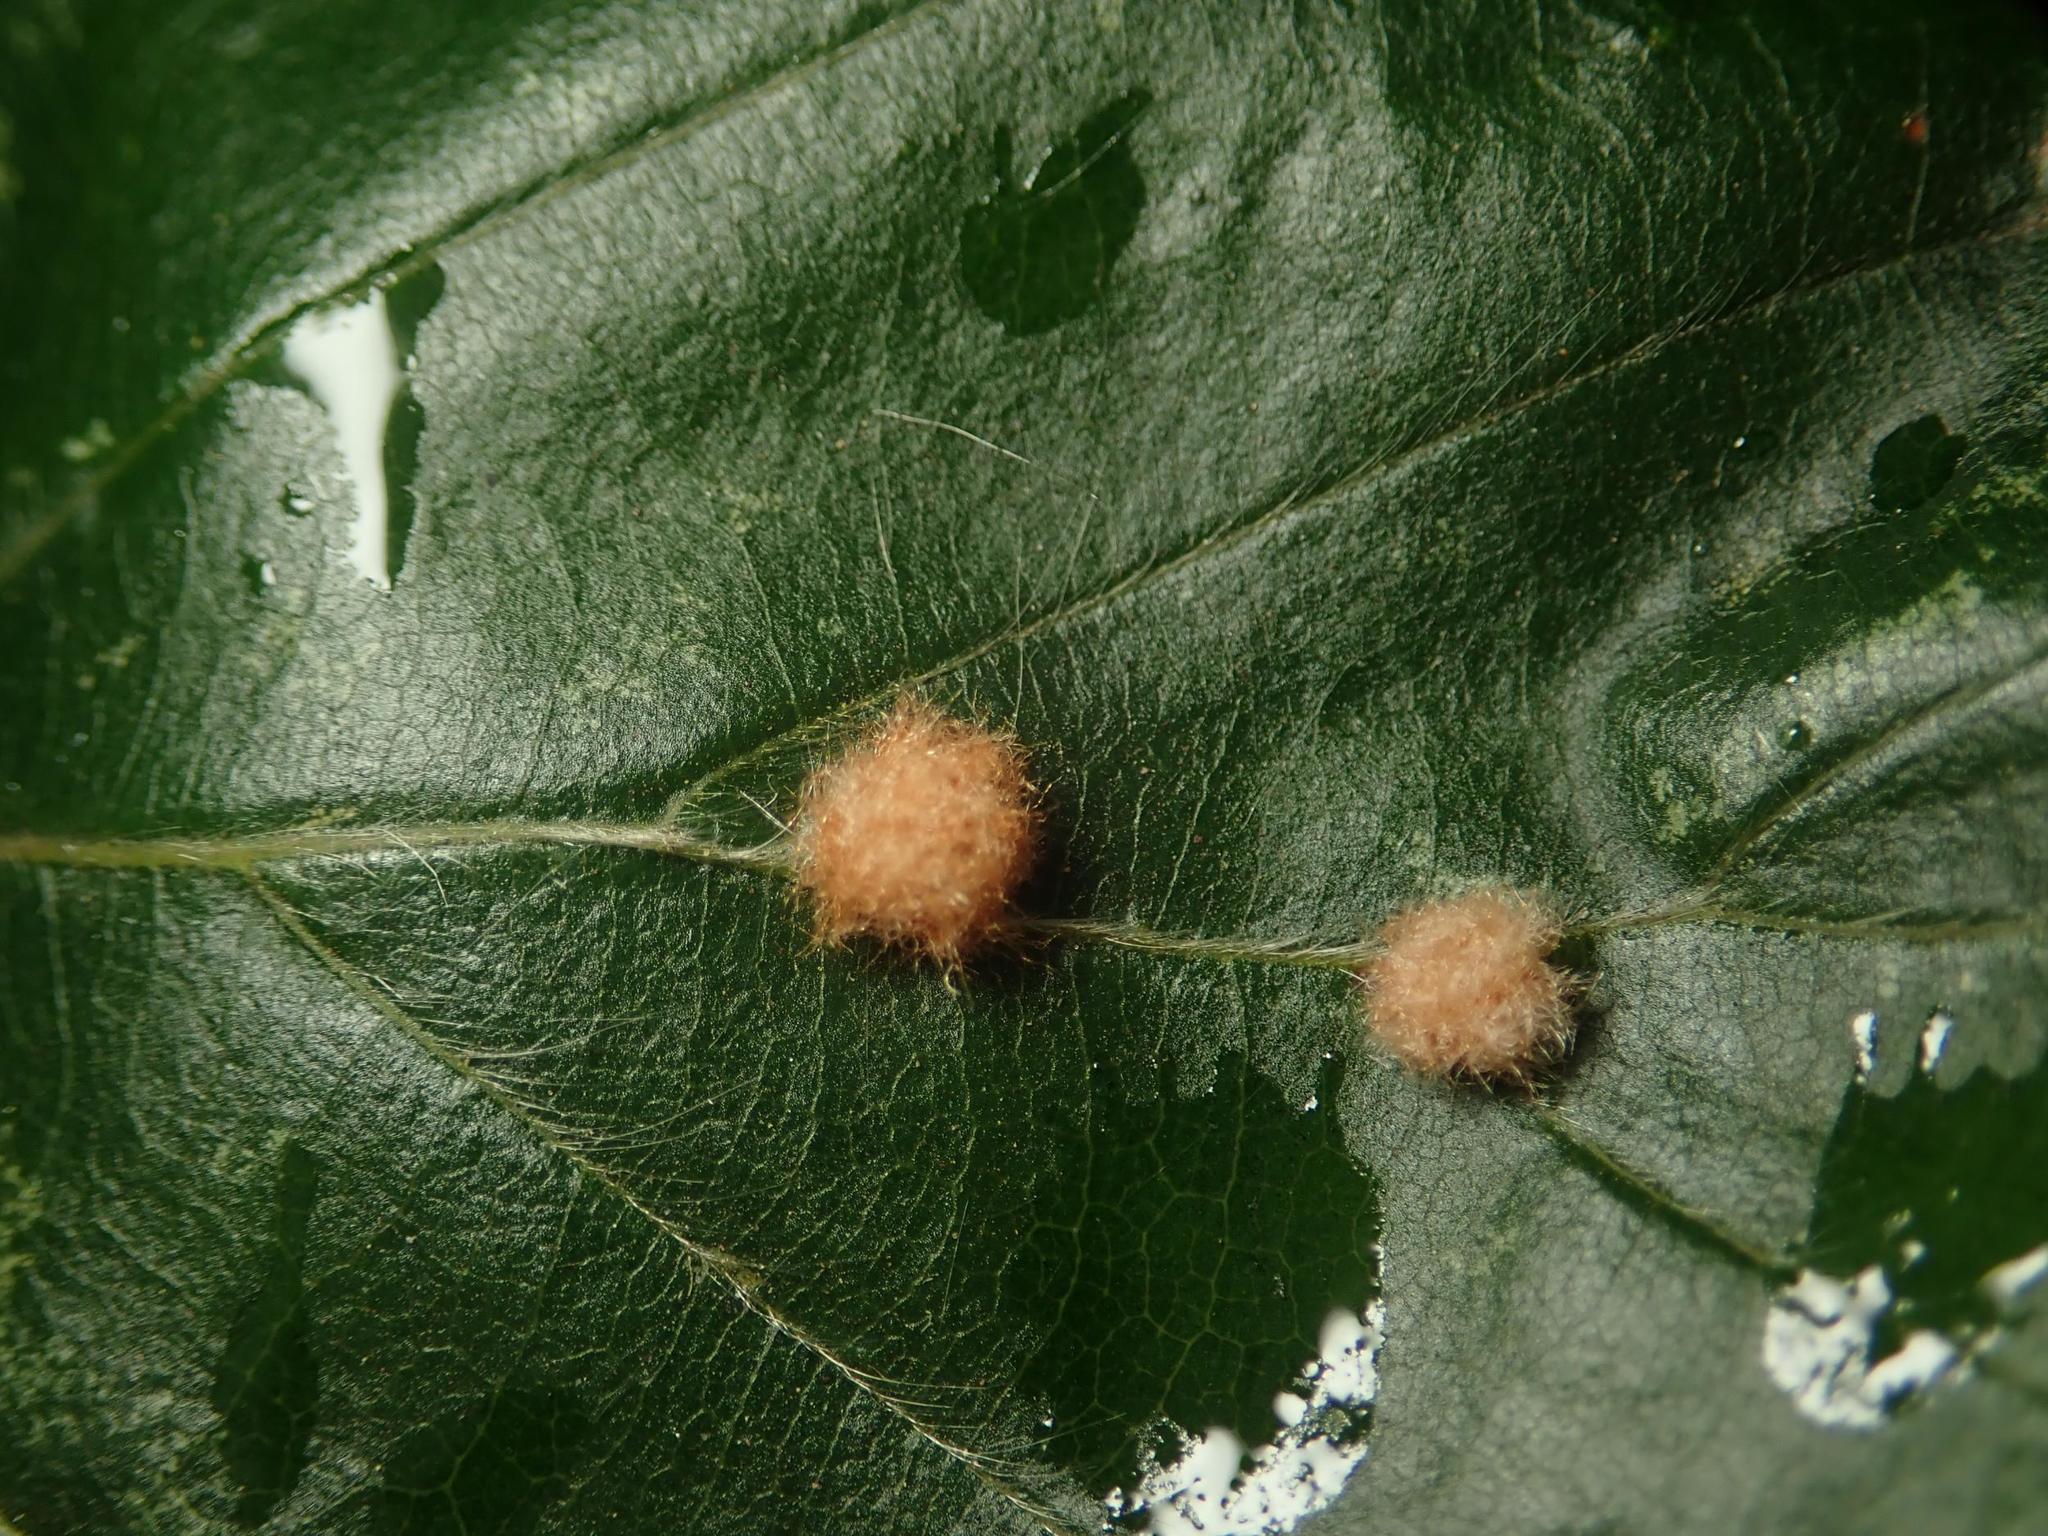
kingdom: Animalia
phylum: Arthropoda
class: Insecta
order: Diptera
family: Cecidomyiidae
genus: Hartigiola
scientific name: Hartigiola annulipes
